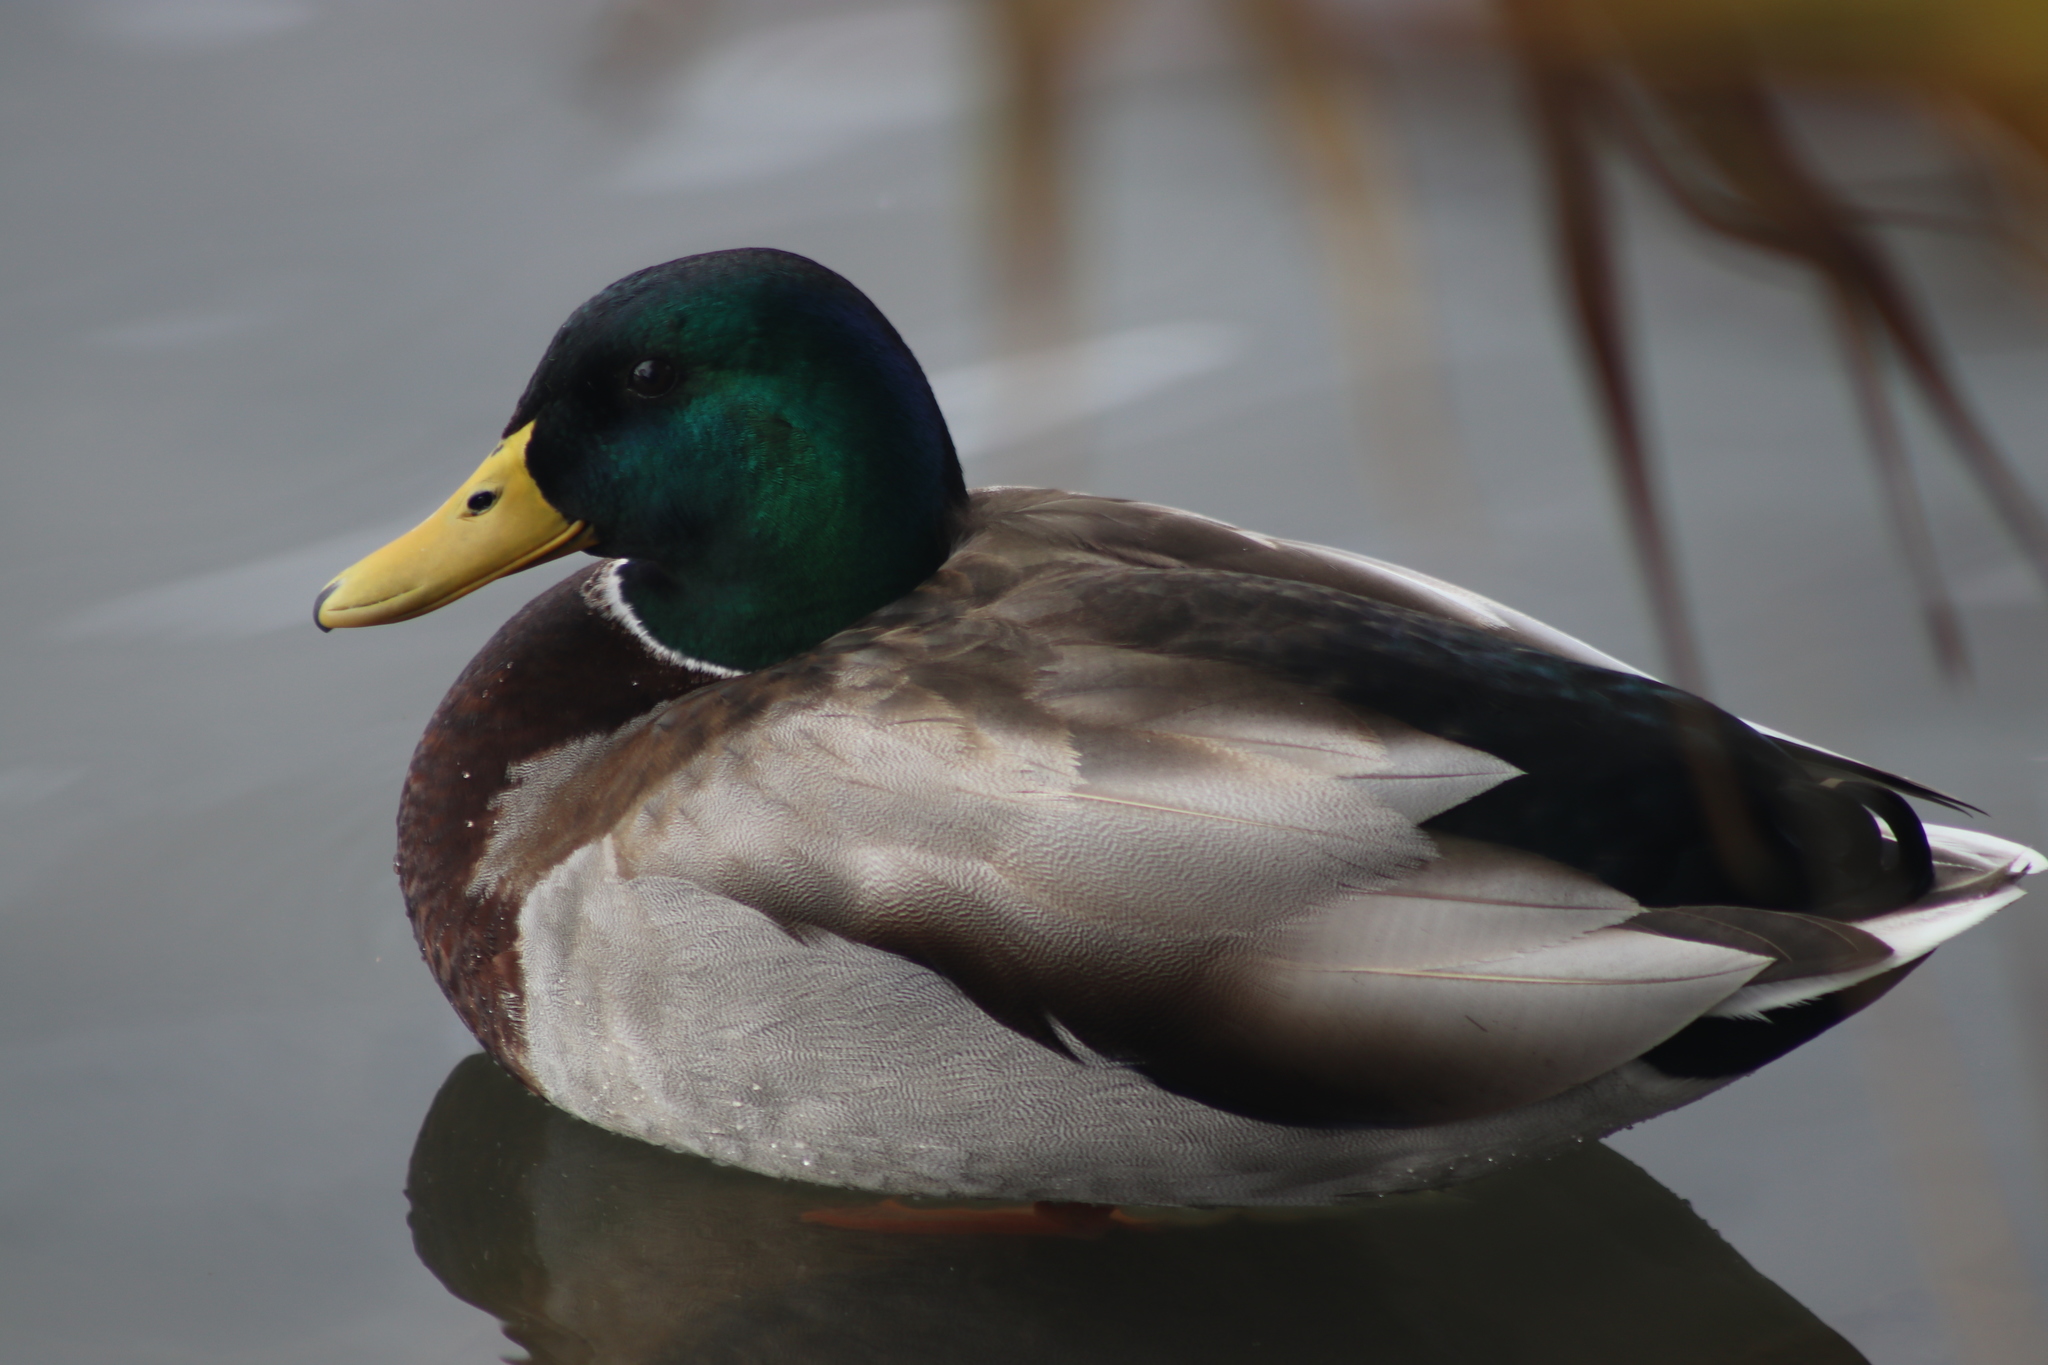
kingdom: Animalia
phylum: Chordata
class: Aves
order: Anseriformes
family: Anatidae
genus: Anas
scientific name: Anas platyrhynchos
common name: Mallard
